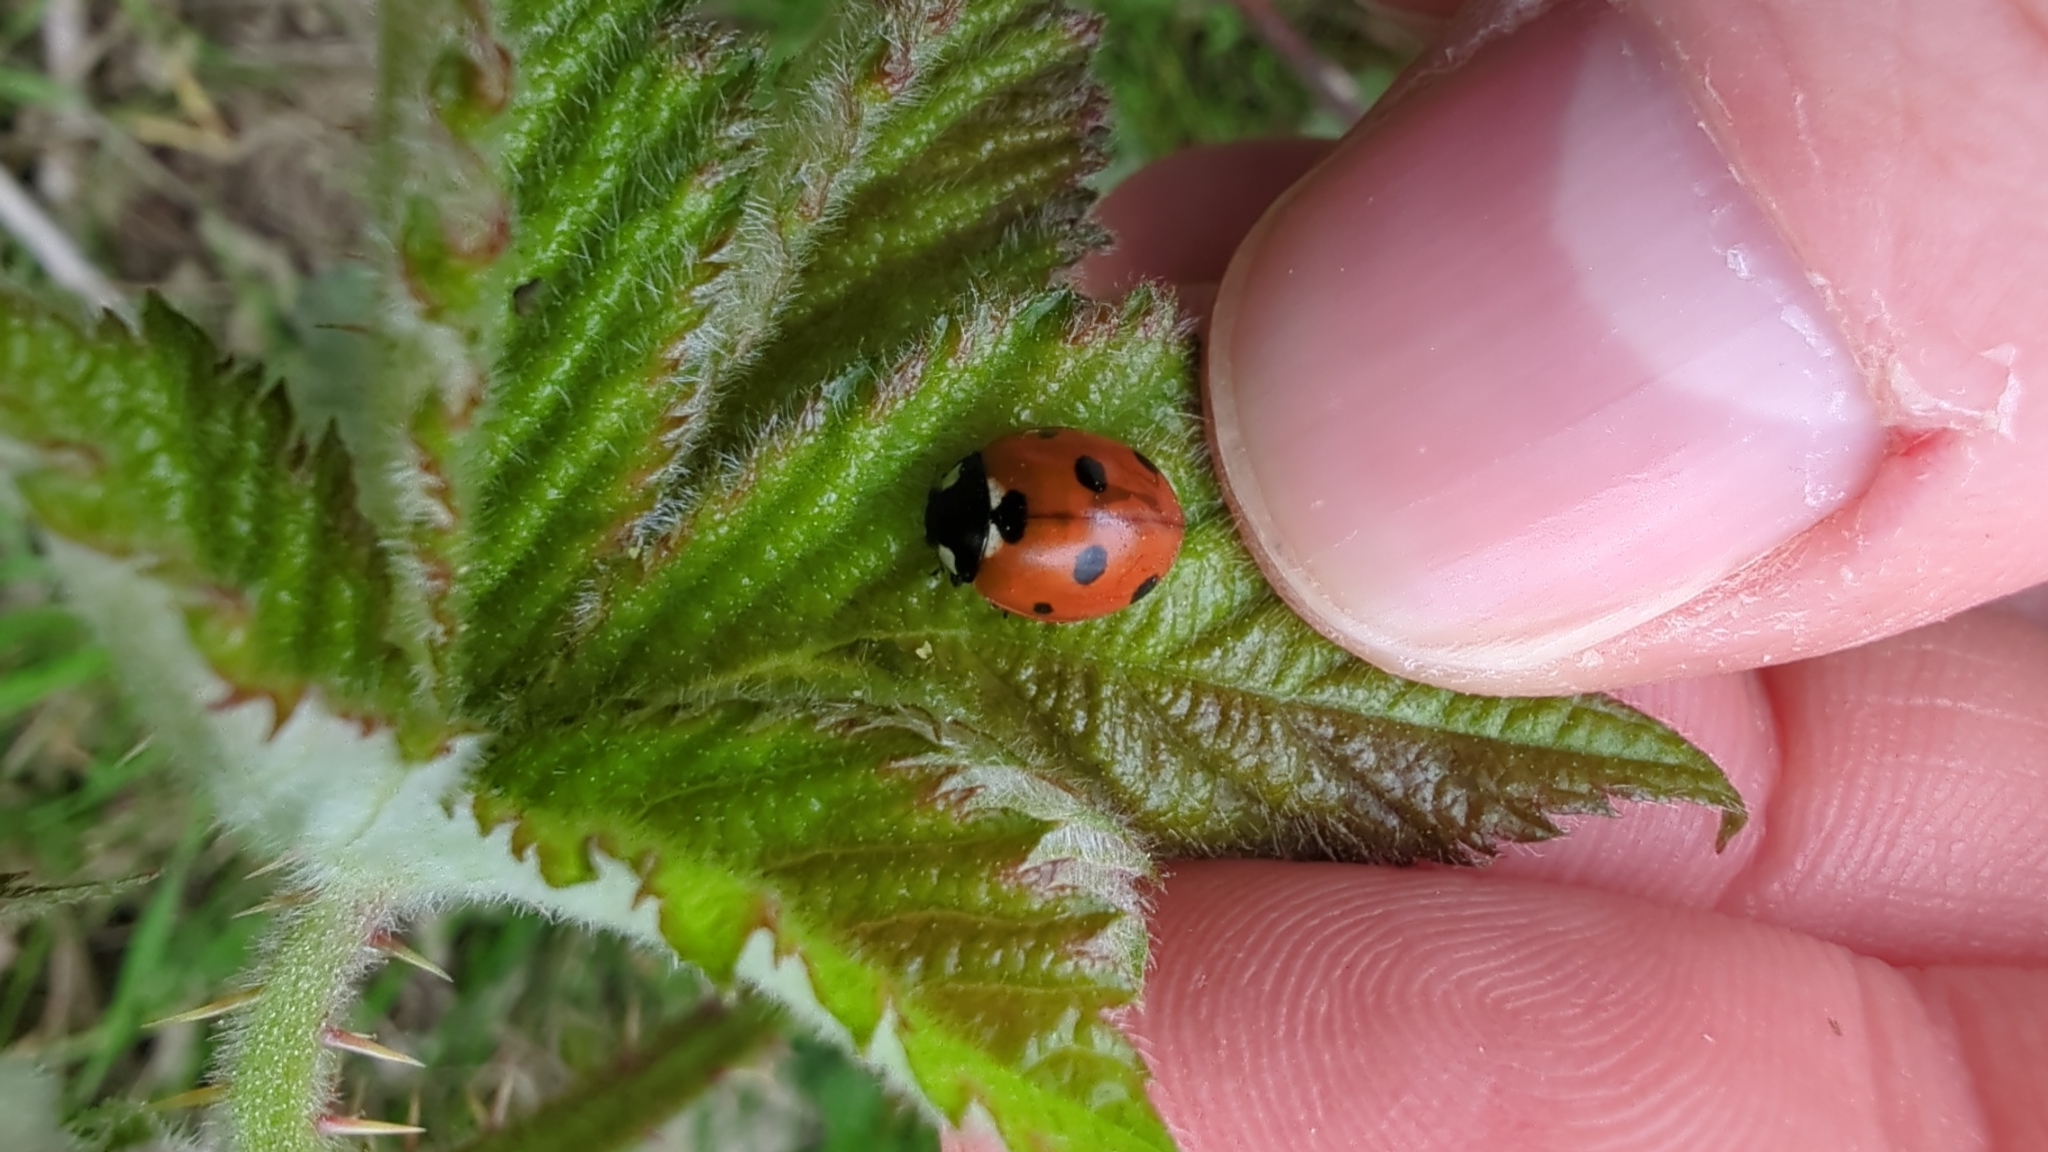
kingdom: Animalia
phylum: Arthropoda
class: Insecta
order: Coleoptera
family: Coccinellidae
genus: Coccinella
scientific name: Coccinella septempunctata
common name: Sevenspotted lady beetle
